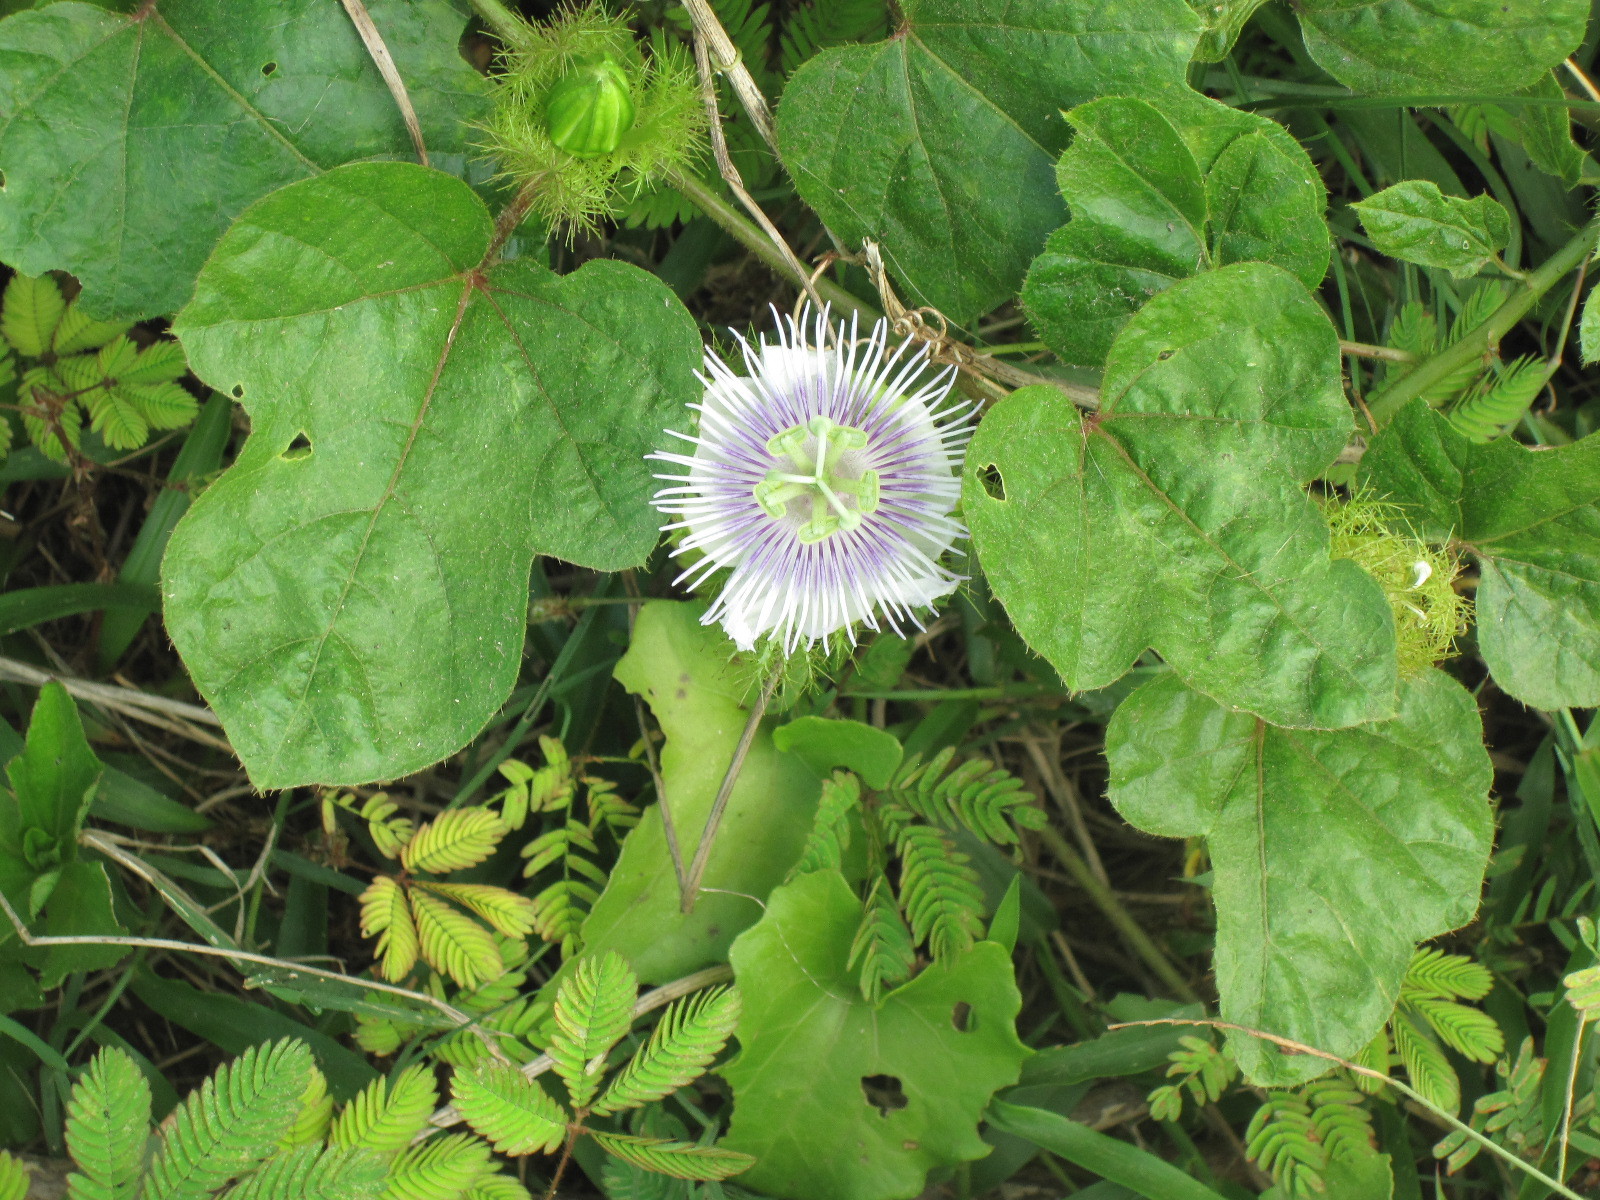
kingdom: Plantae
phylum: Tracheophyta
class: Magnoliopsida
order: Malpighiales
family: Passifloraceae
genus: Passiflora
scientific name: Passiflora foetida
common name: Fetid passionflower
